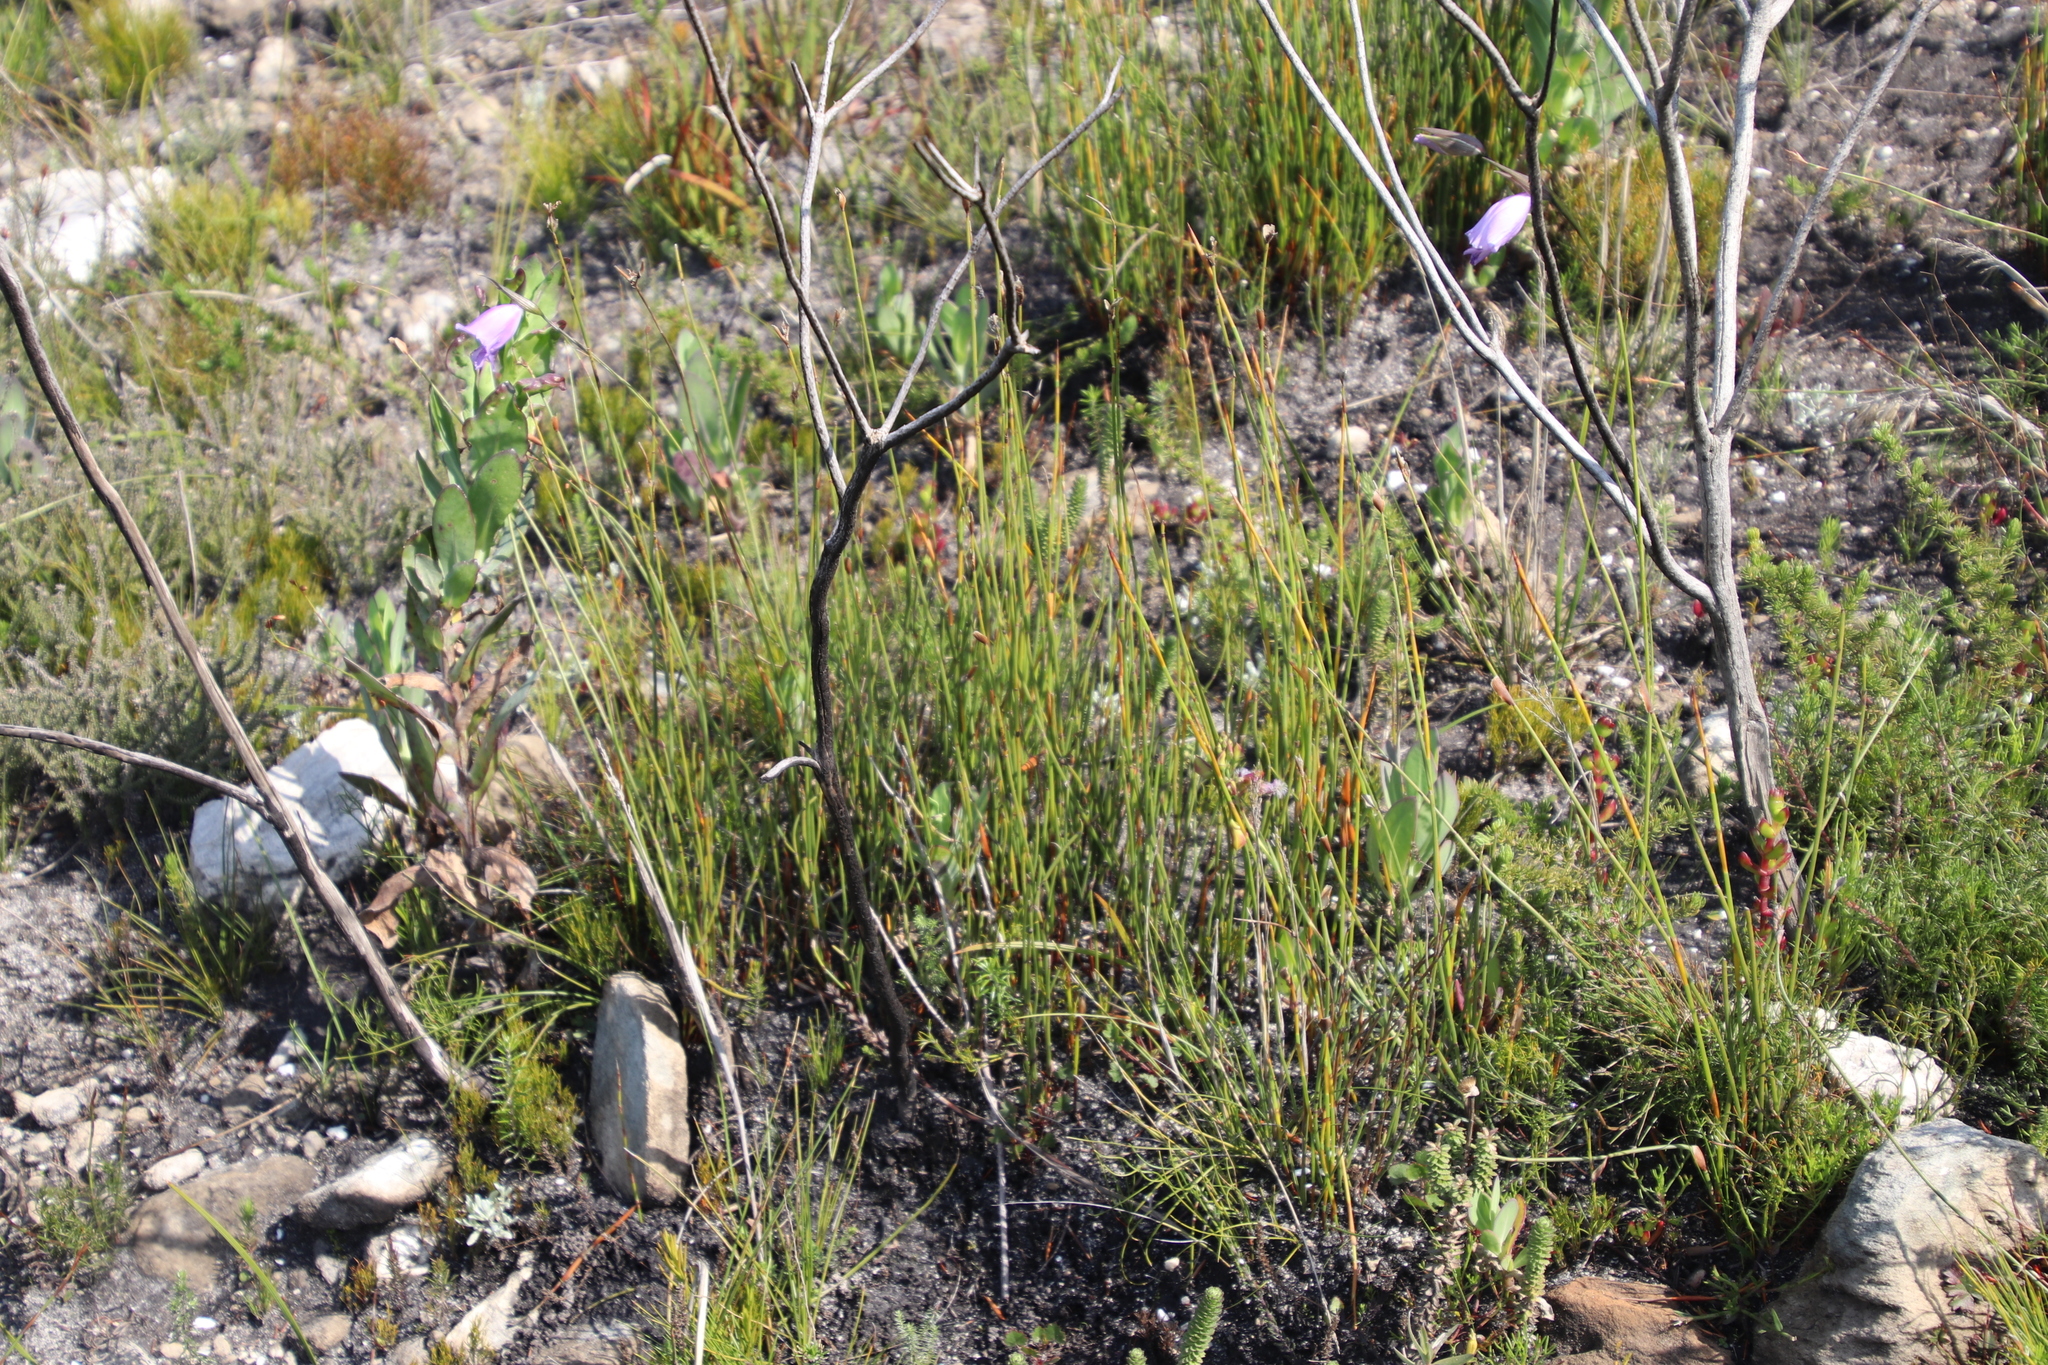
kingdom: Plantae
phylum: Tracheophyta
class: Liliopsida
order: Asparagales
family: Iridaceae
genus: Gladiolus
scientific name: Gladiolus bullatus
